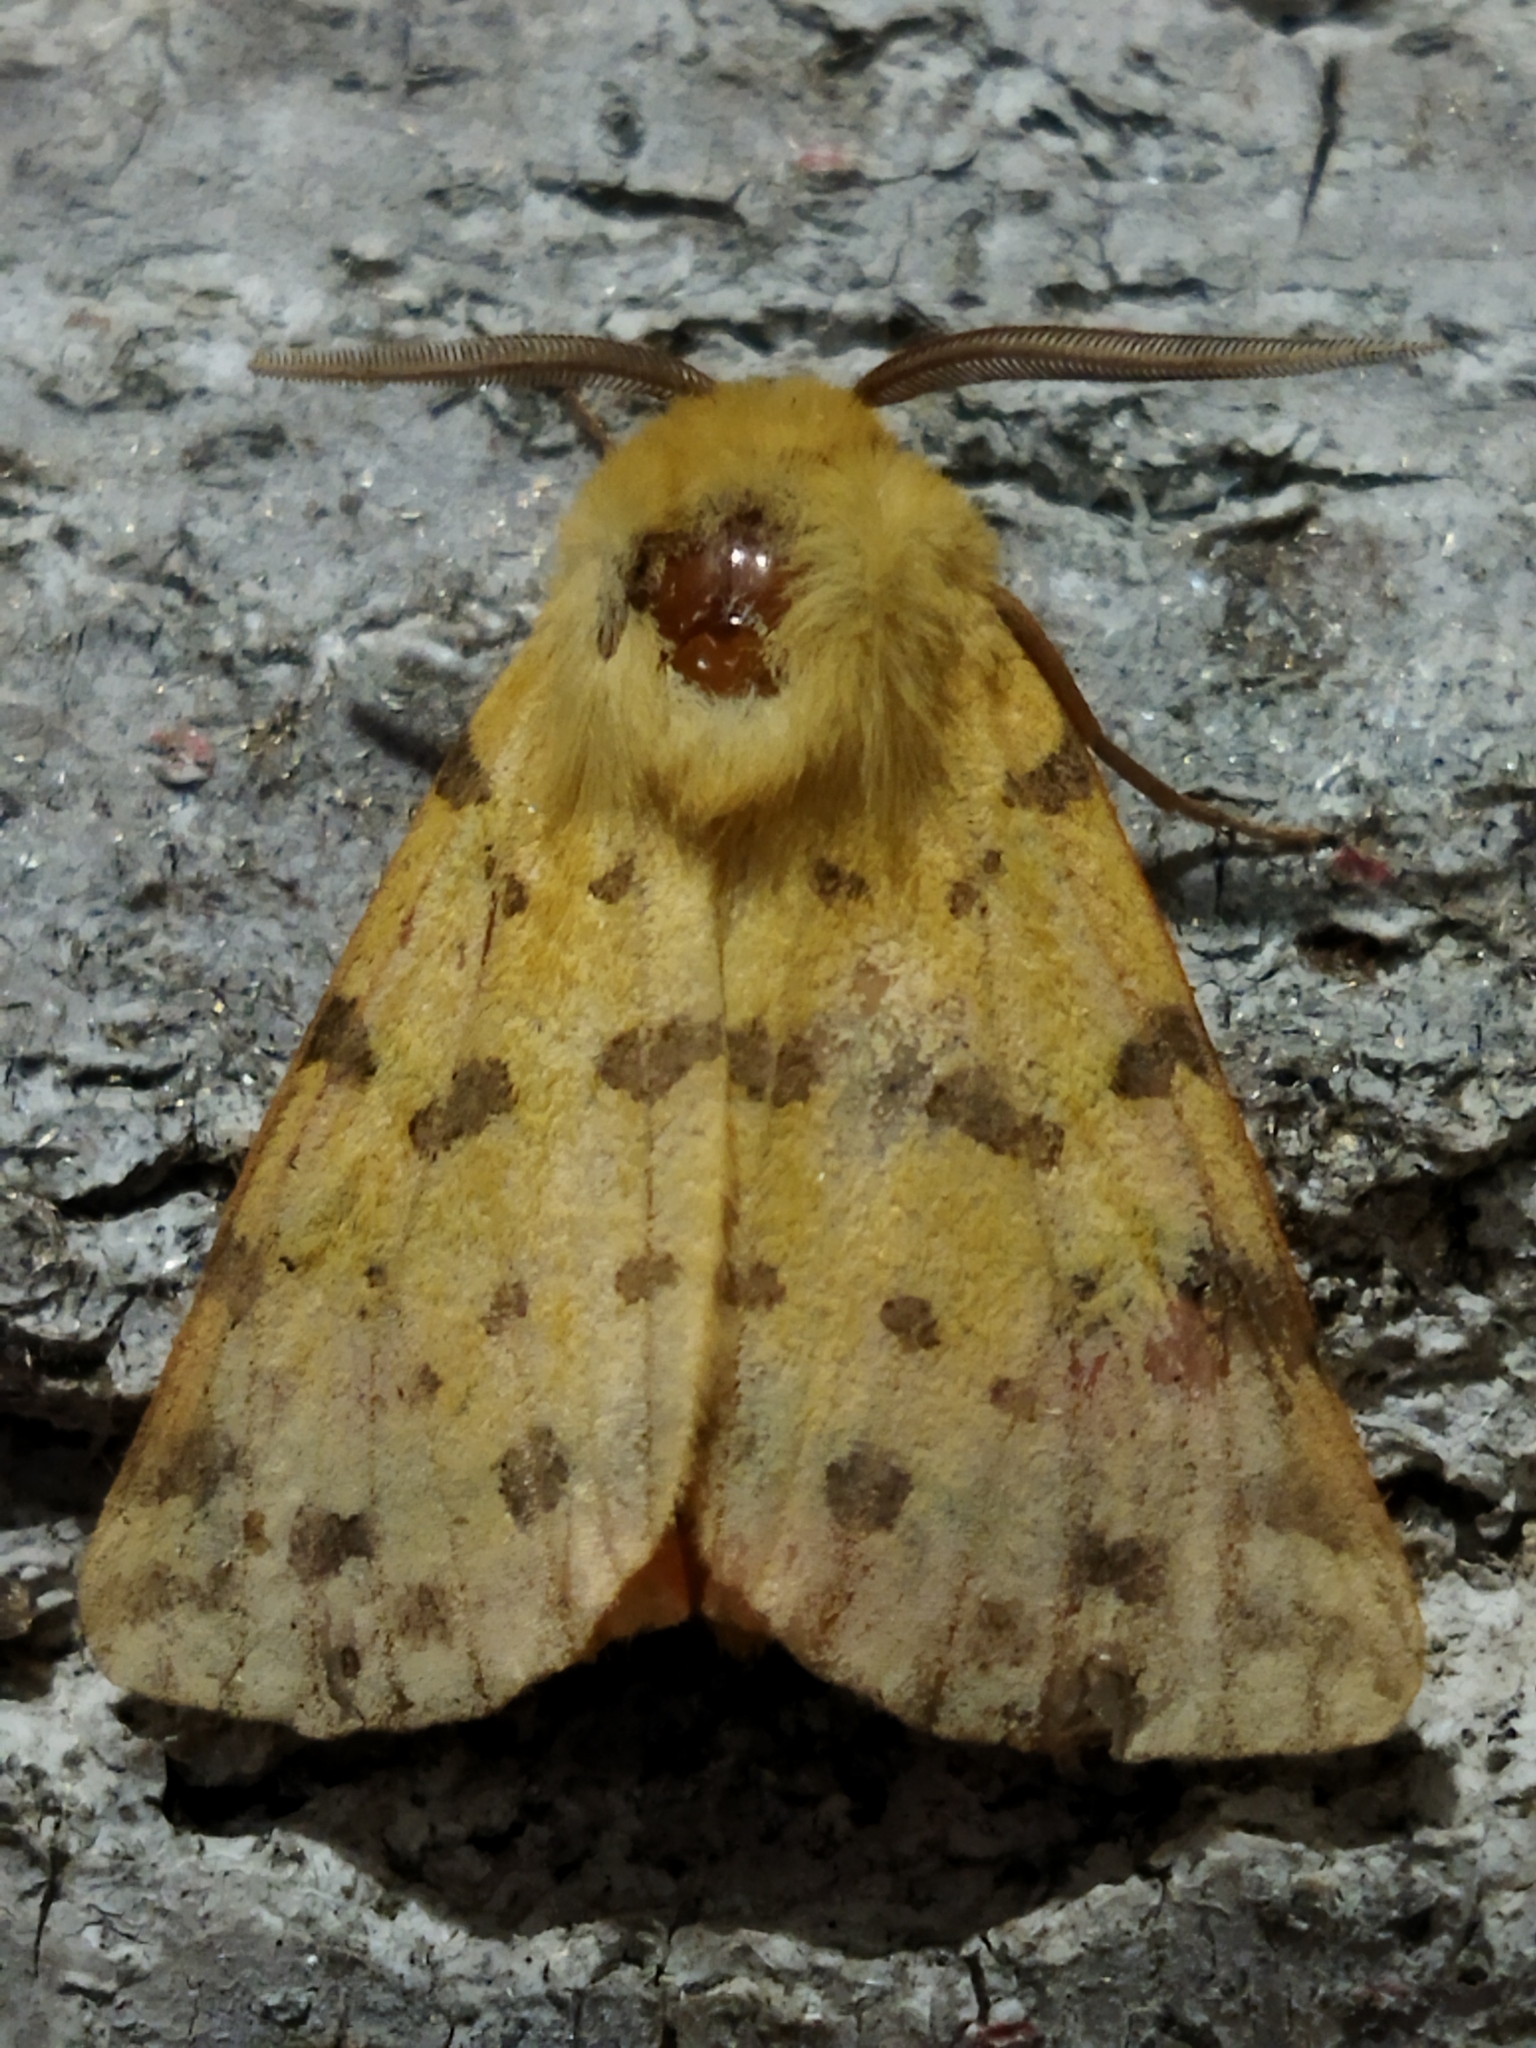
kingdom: Animalia
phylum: Arthropoda
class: Insecta
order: Lepidoptera
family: Erebidae
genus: Rhyparia
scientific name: Rhyparia purpurata
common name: Purple tiger
